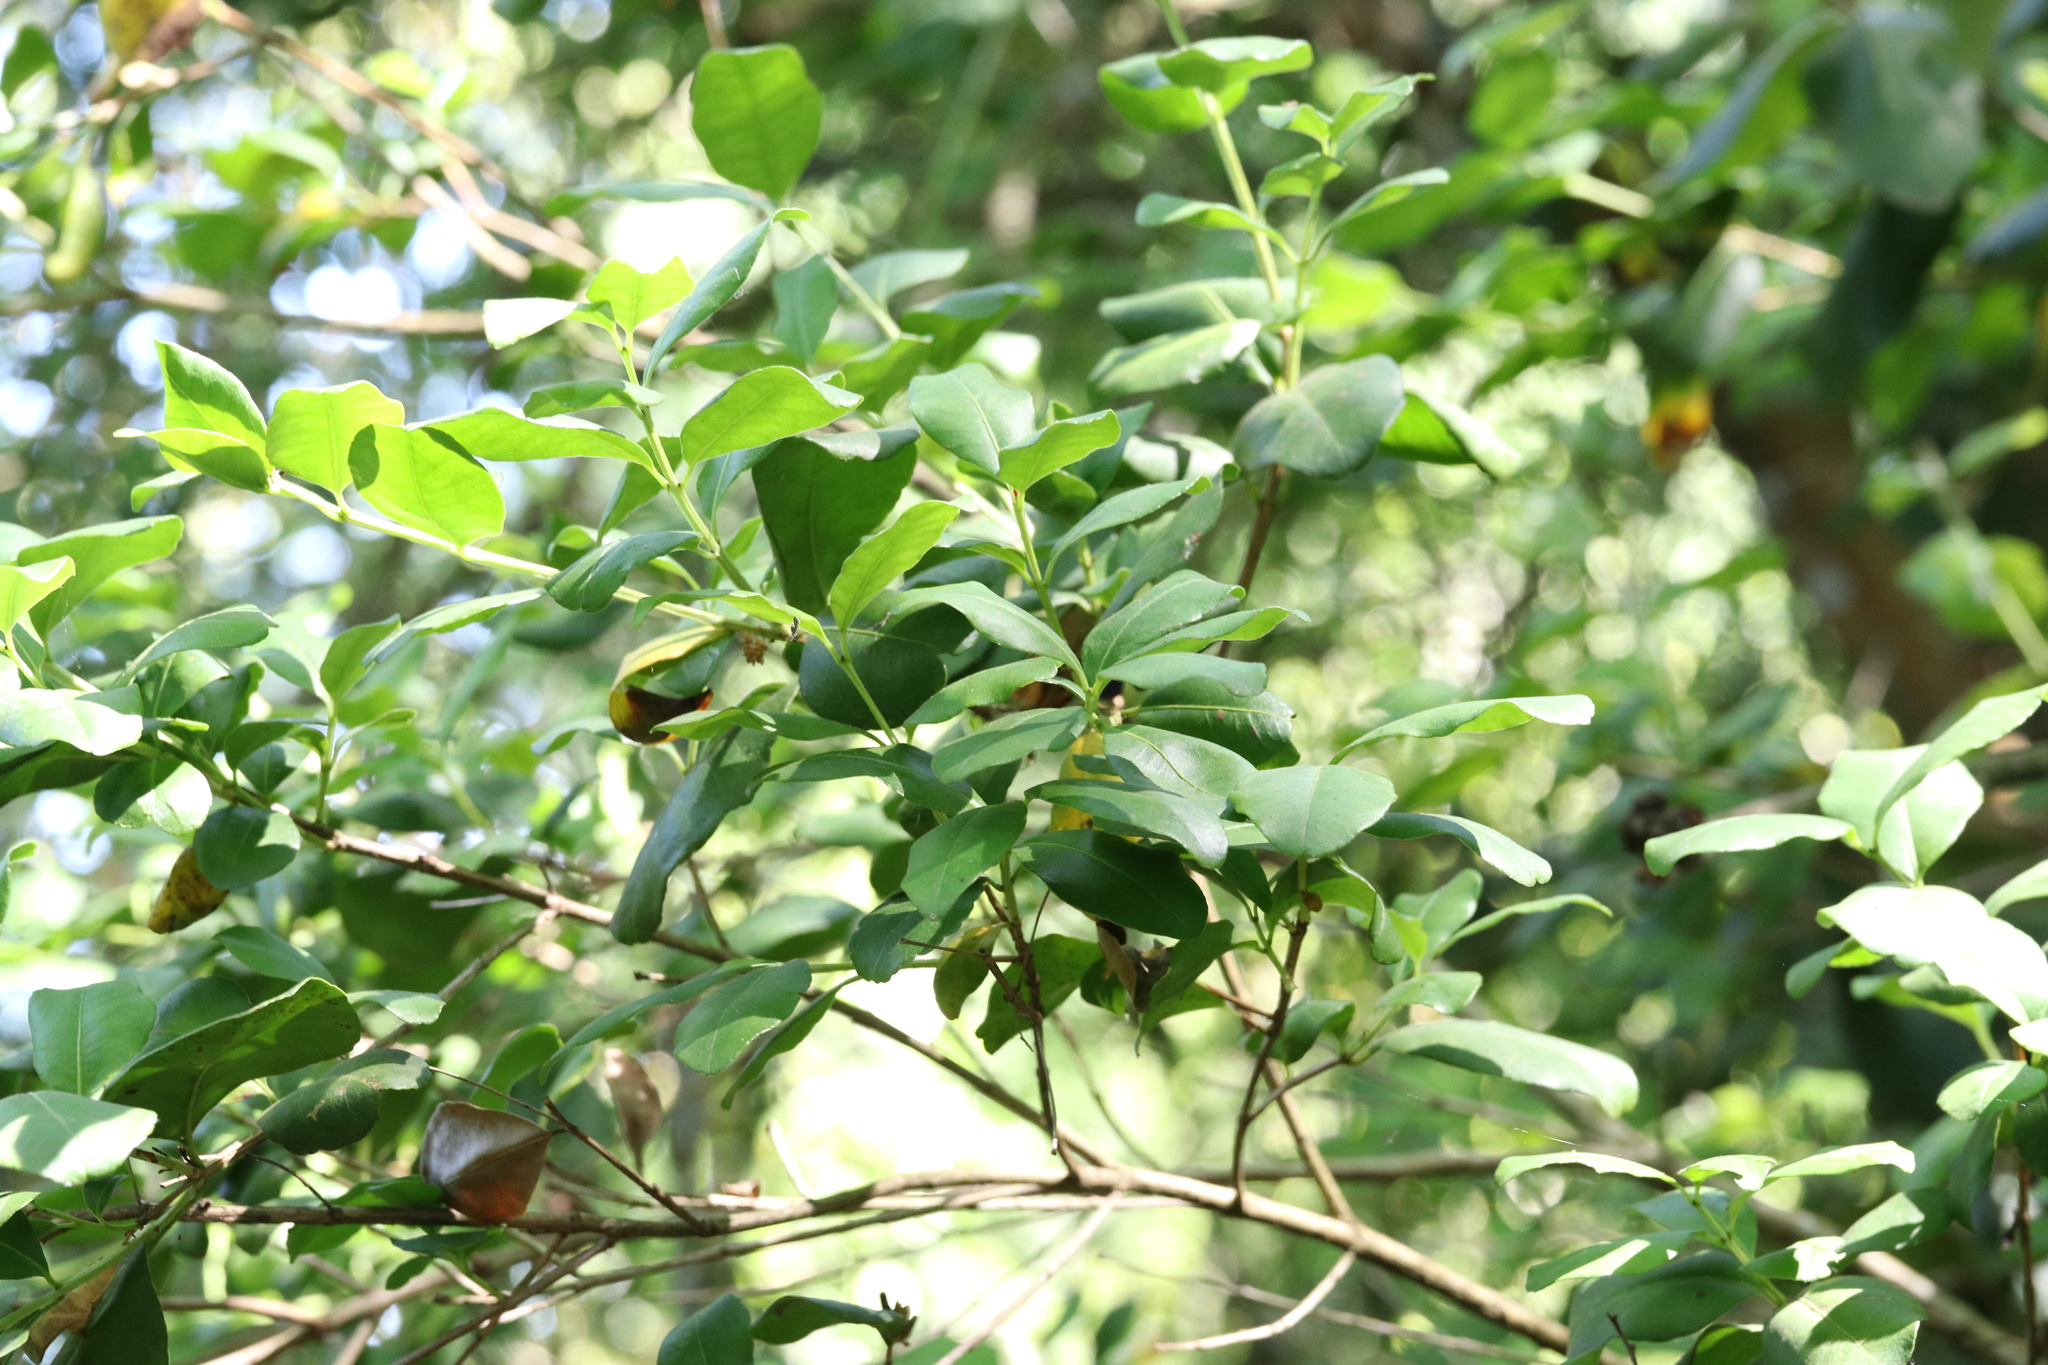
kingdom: Plantae
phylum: Tracheophyta
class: Magnoliopsida
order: Myrtales
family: Myrtaceae
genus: Blepharocalyx
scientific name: Blepharocalyx cruckshanksii
